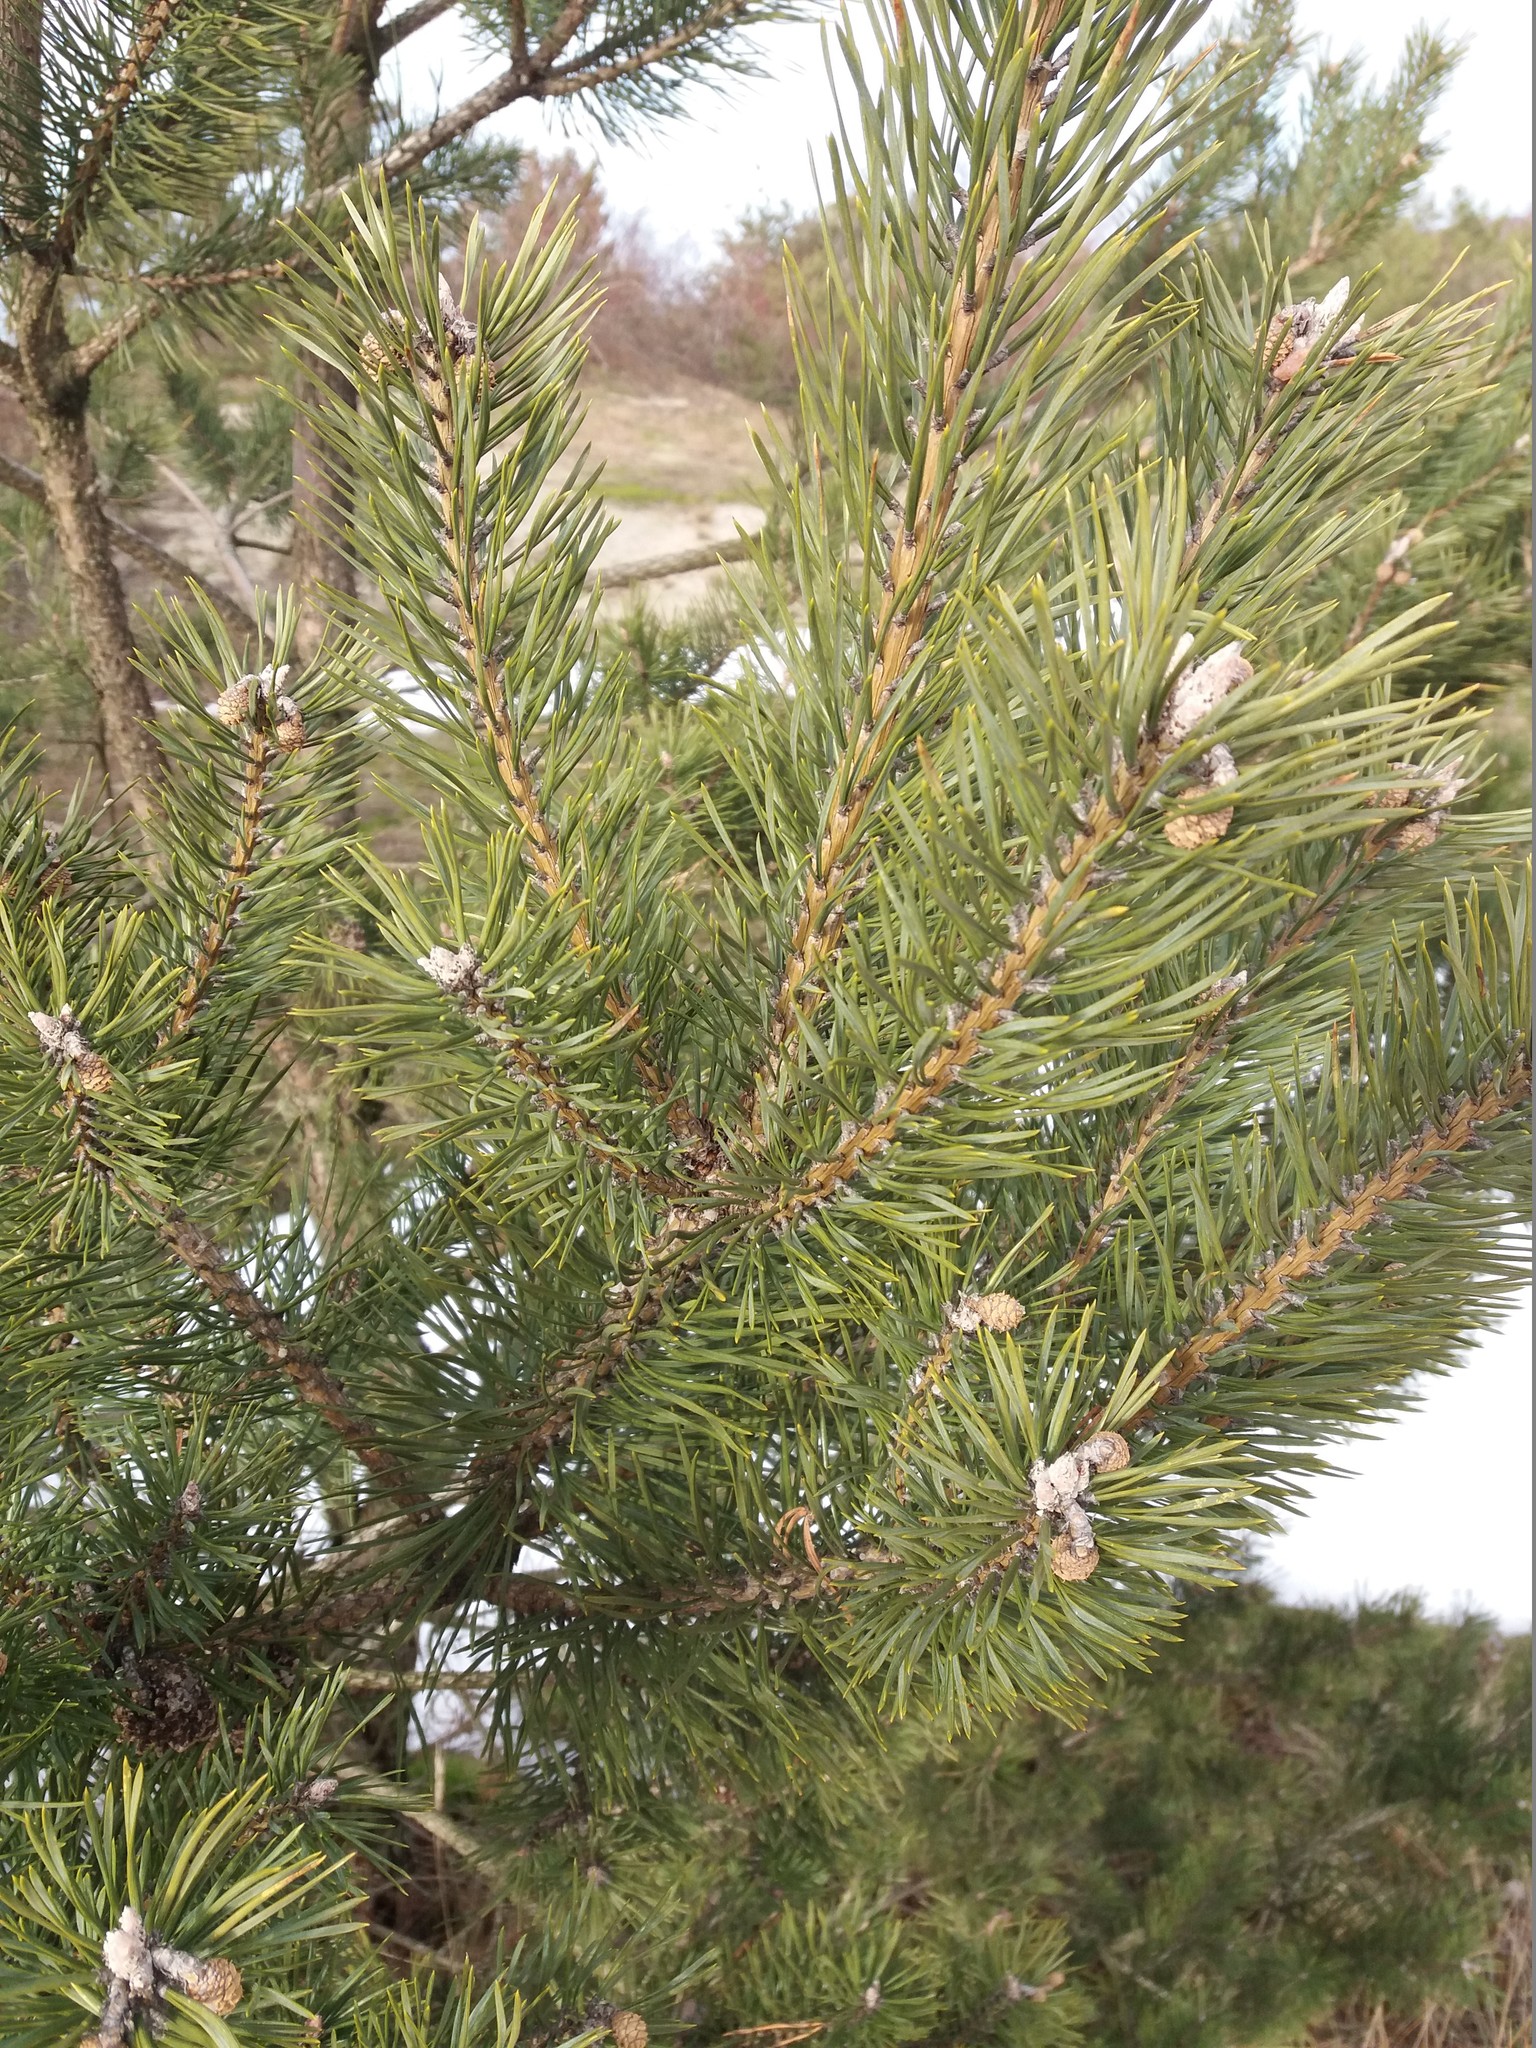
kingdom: Plantae
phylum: Tracheophyta
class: Pinopsida
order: Pinales
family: Pinaceae
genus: Pinus
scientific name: Pinus sylvestris
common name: Scots pine
